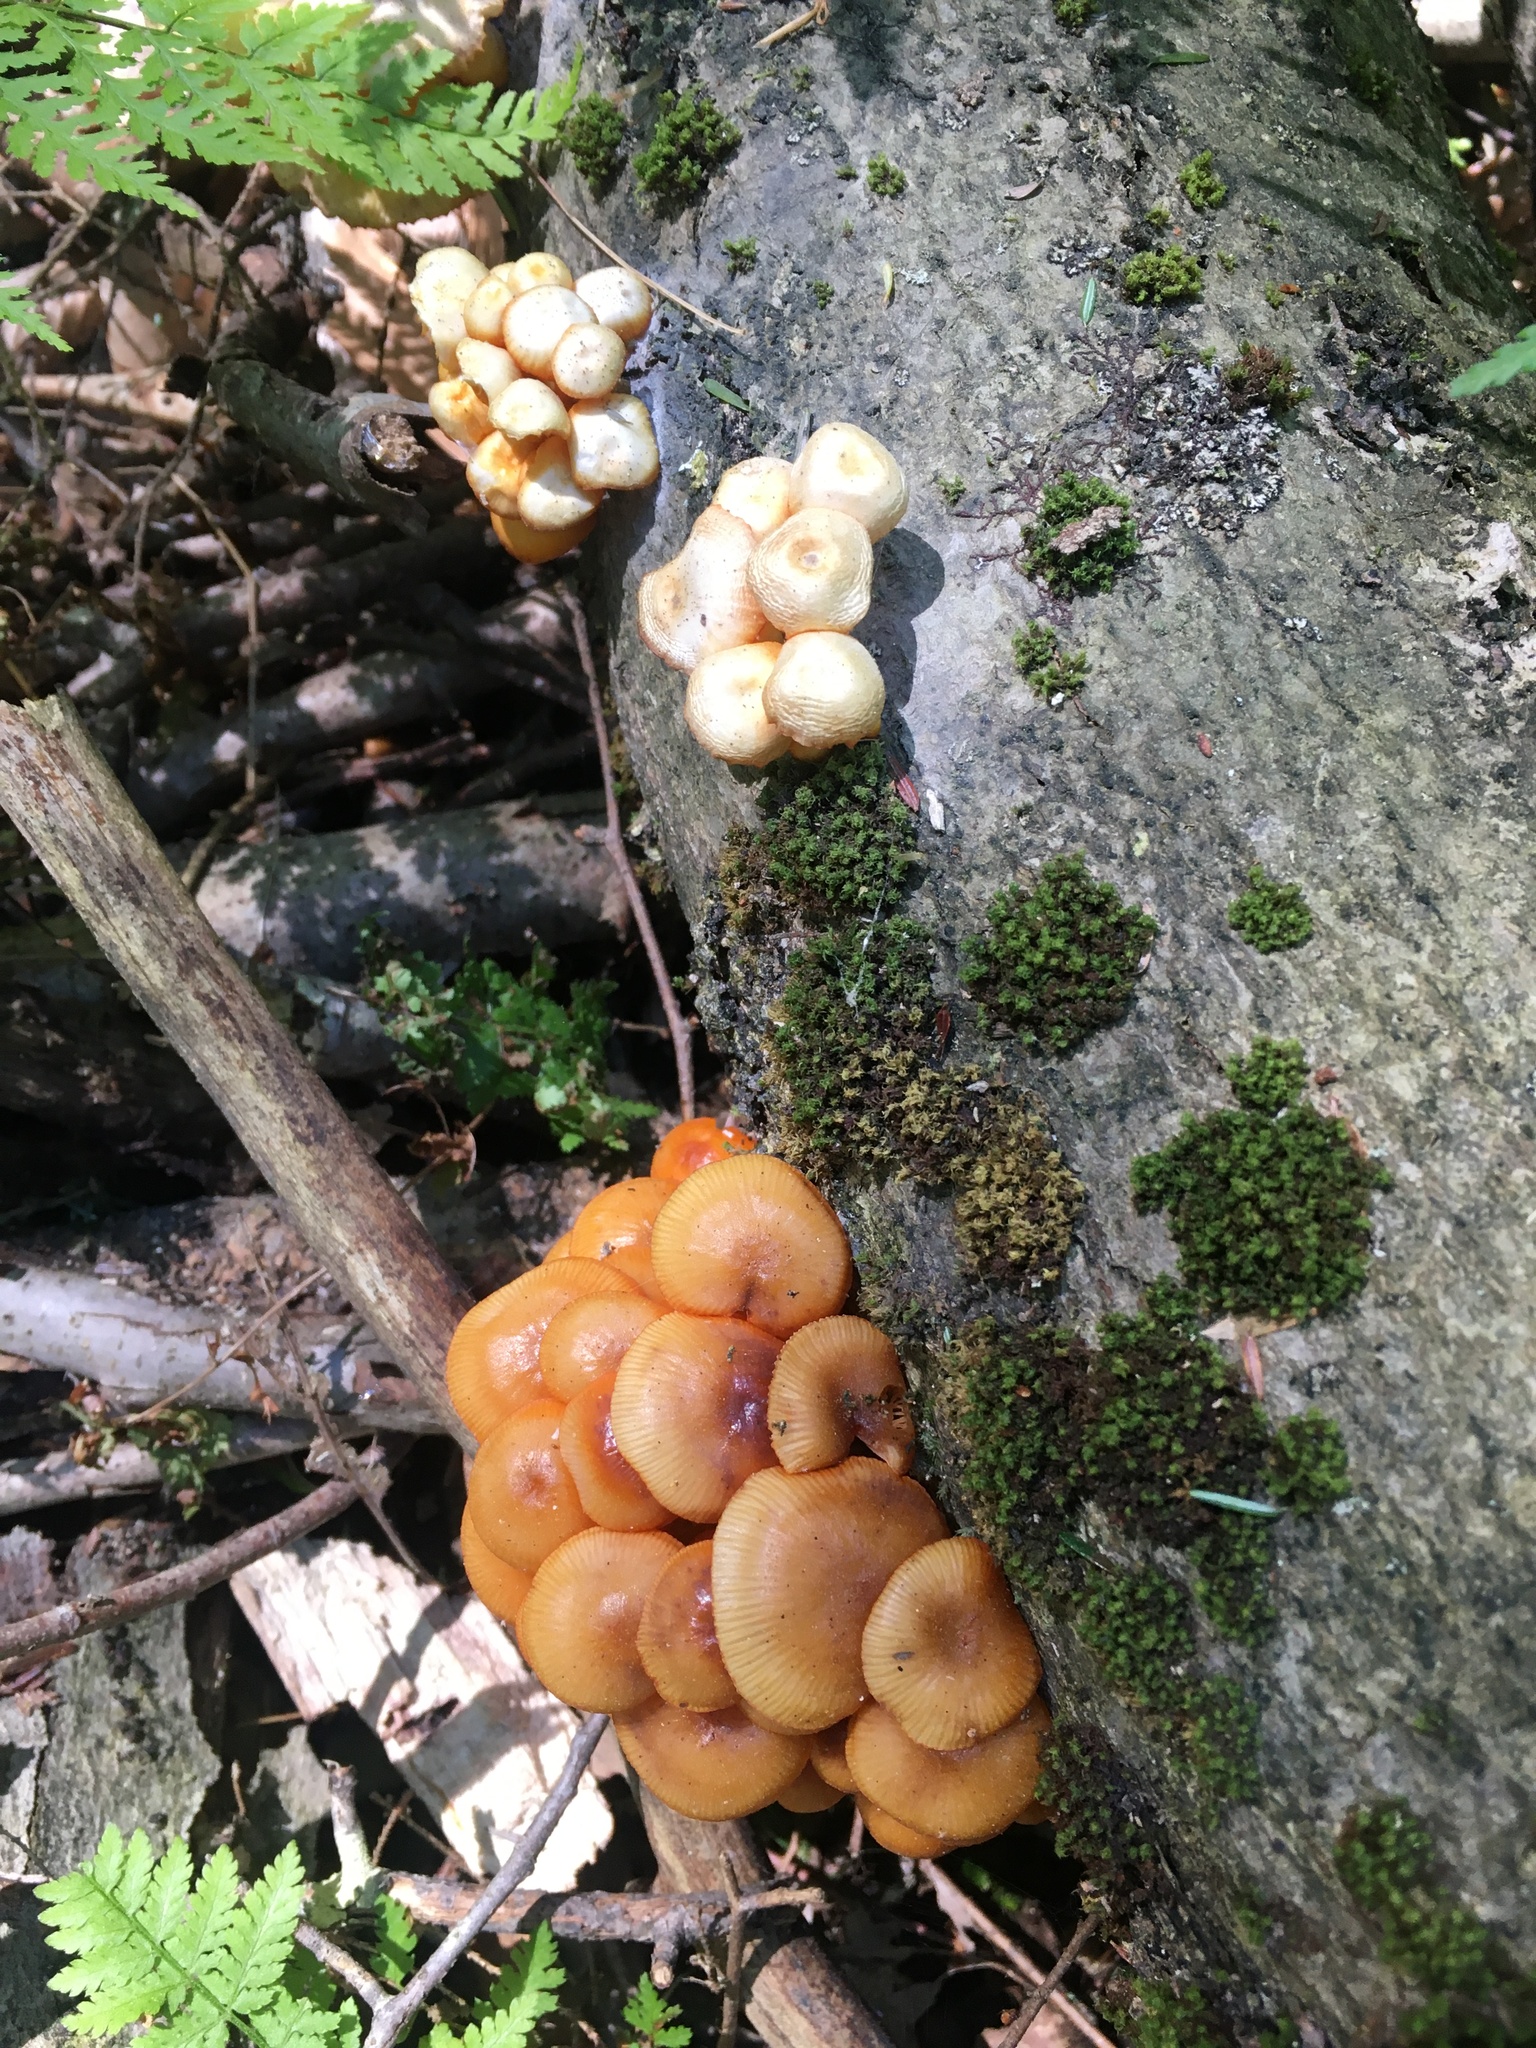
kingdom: Fungi
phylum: Basidiomycota
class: Agaricomycetes
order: Agaricales
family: Mycenaceae
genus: Mycena
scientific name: Mycena leaiana
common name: Orange mycena
